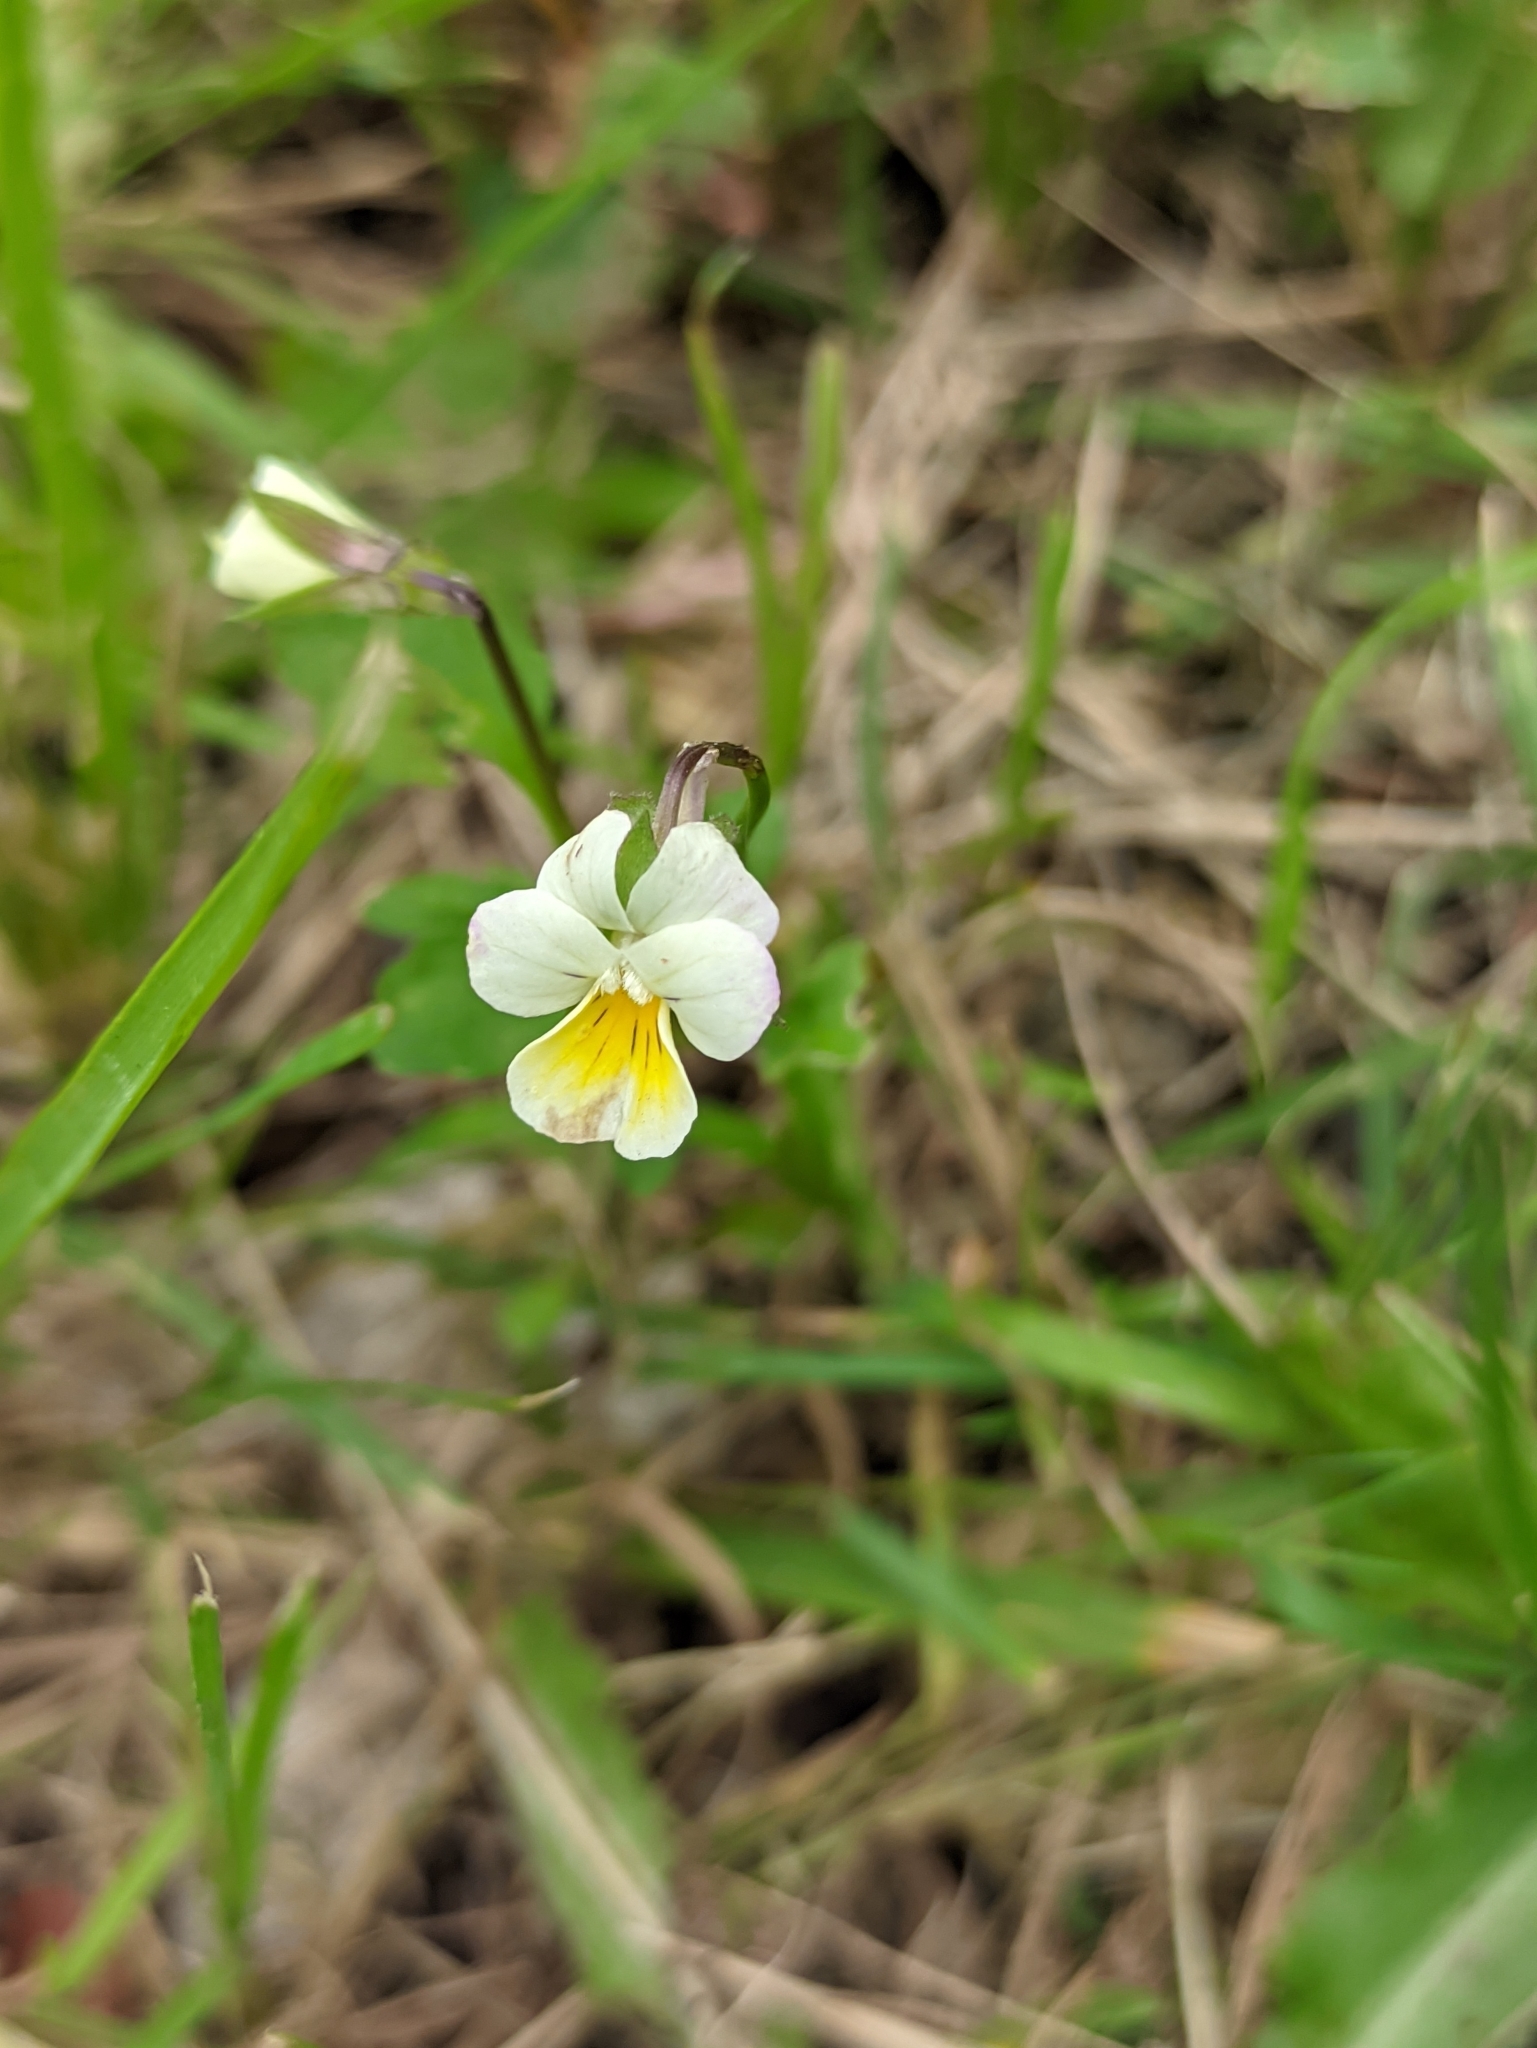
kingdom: Plantae
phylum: Tracheophyta
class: Magnoliopsida
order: Malpighiales
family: Violaceae
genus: Viola
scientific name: Viola arvensis
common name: Field pansy
